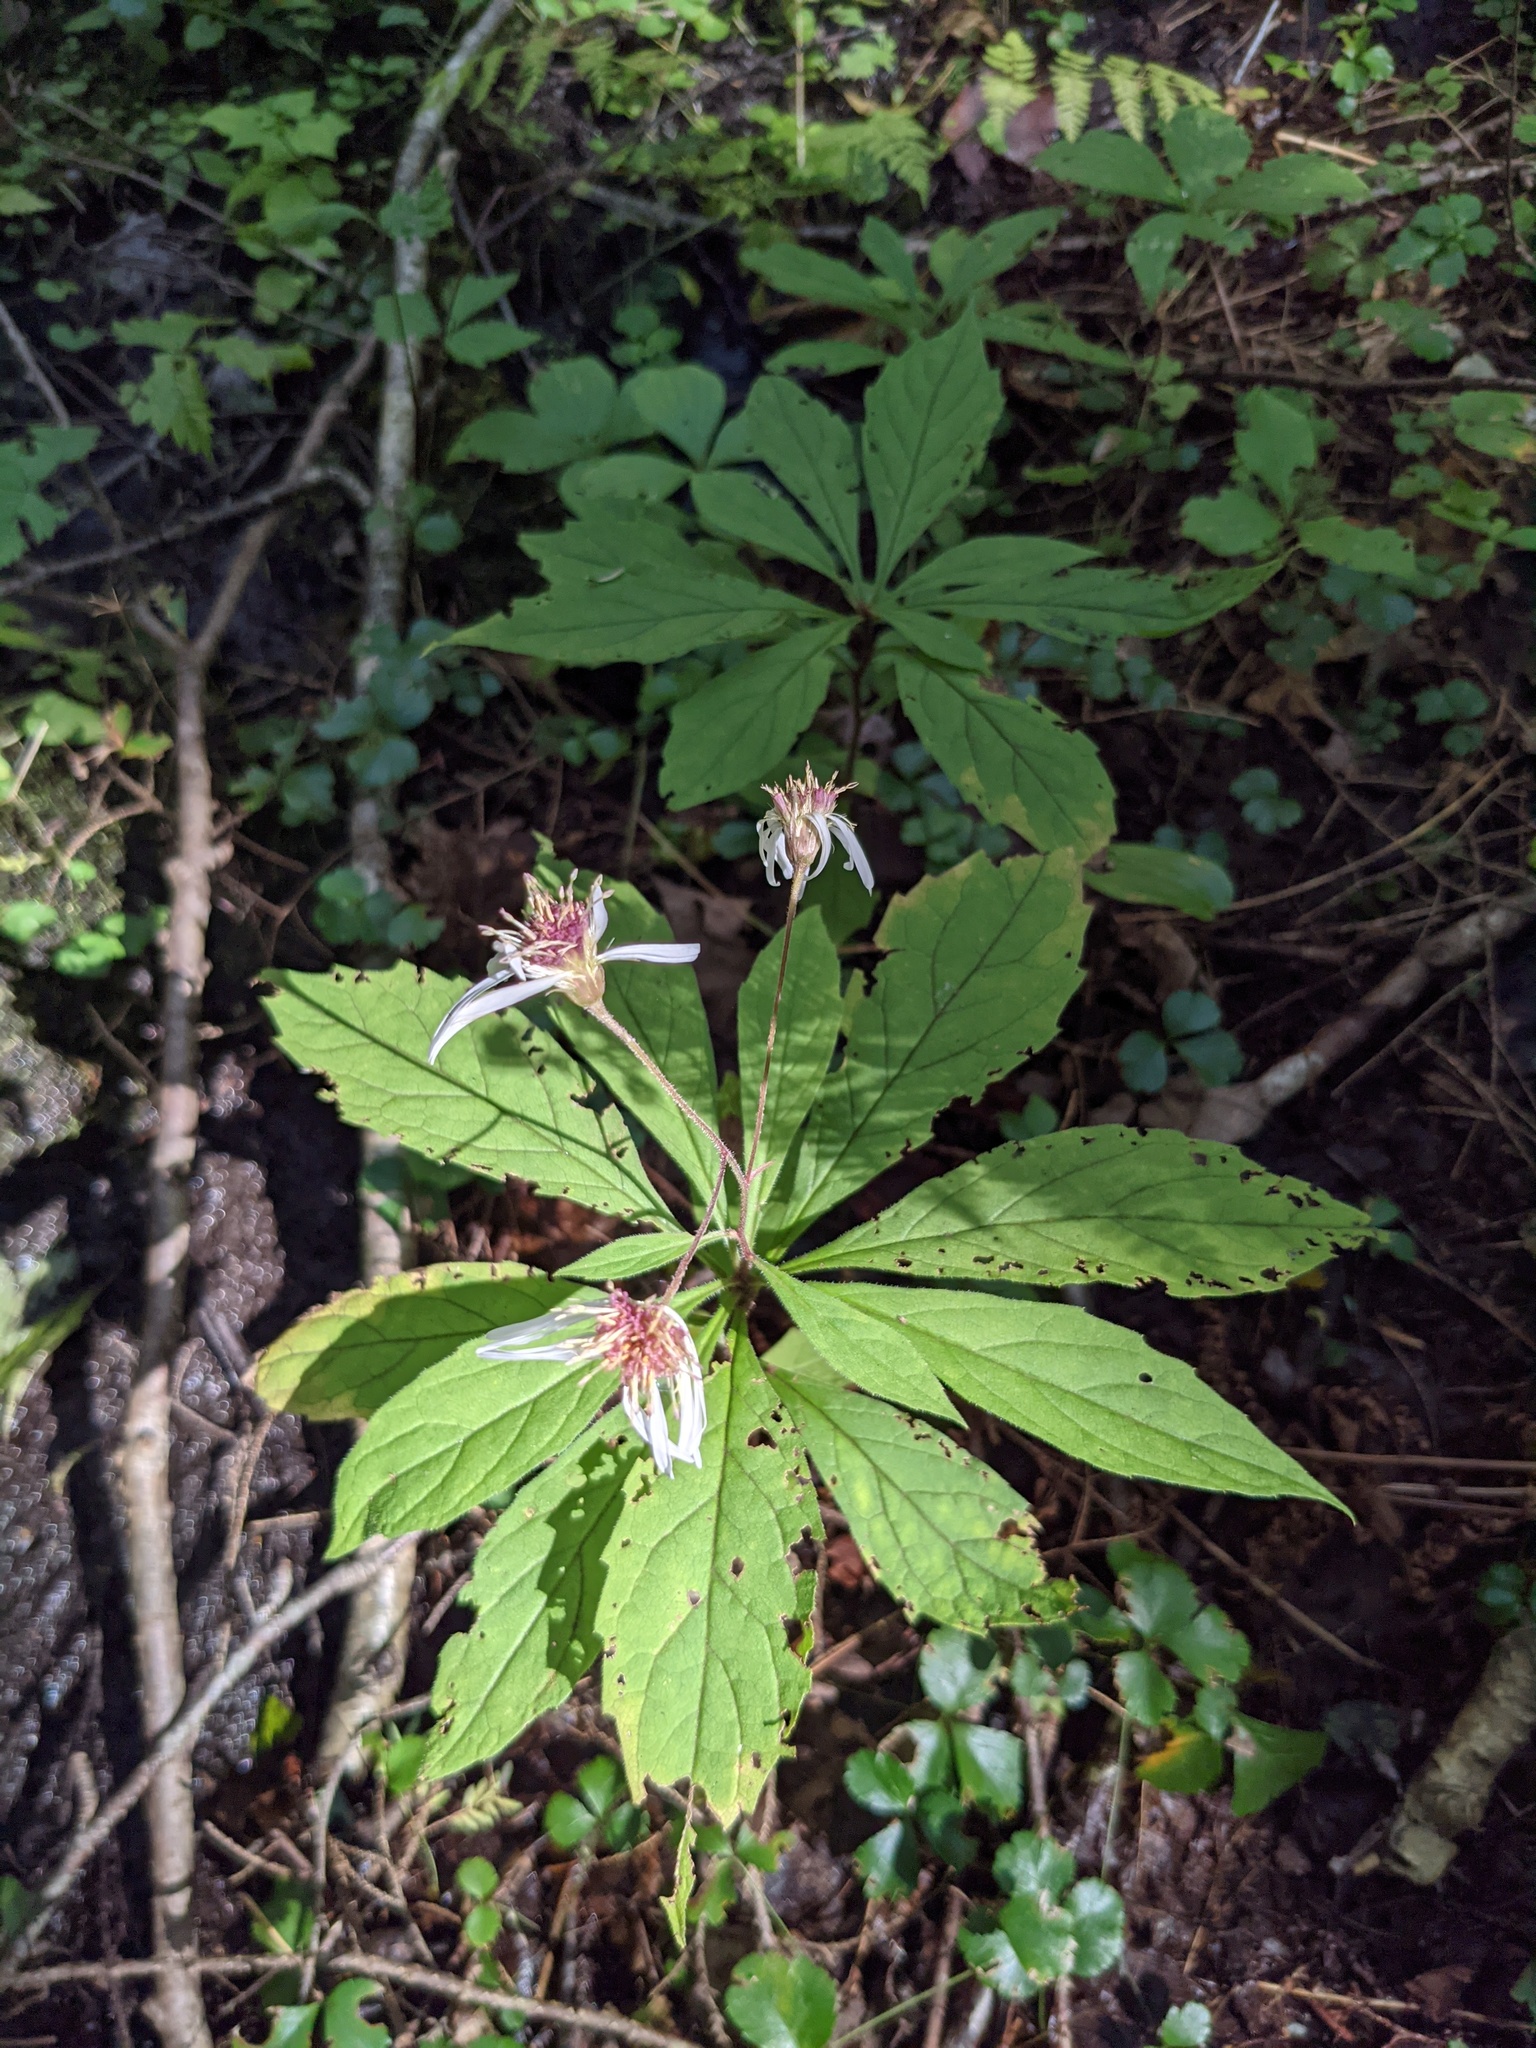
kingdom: Plantae
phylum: Tracheophyta
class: Magnoliopsida
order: Asterales
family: Asteraceae
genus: Oclemena
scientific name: Oclemena acuminata
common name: Mountain aster
